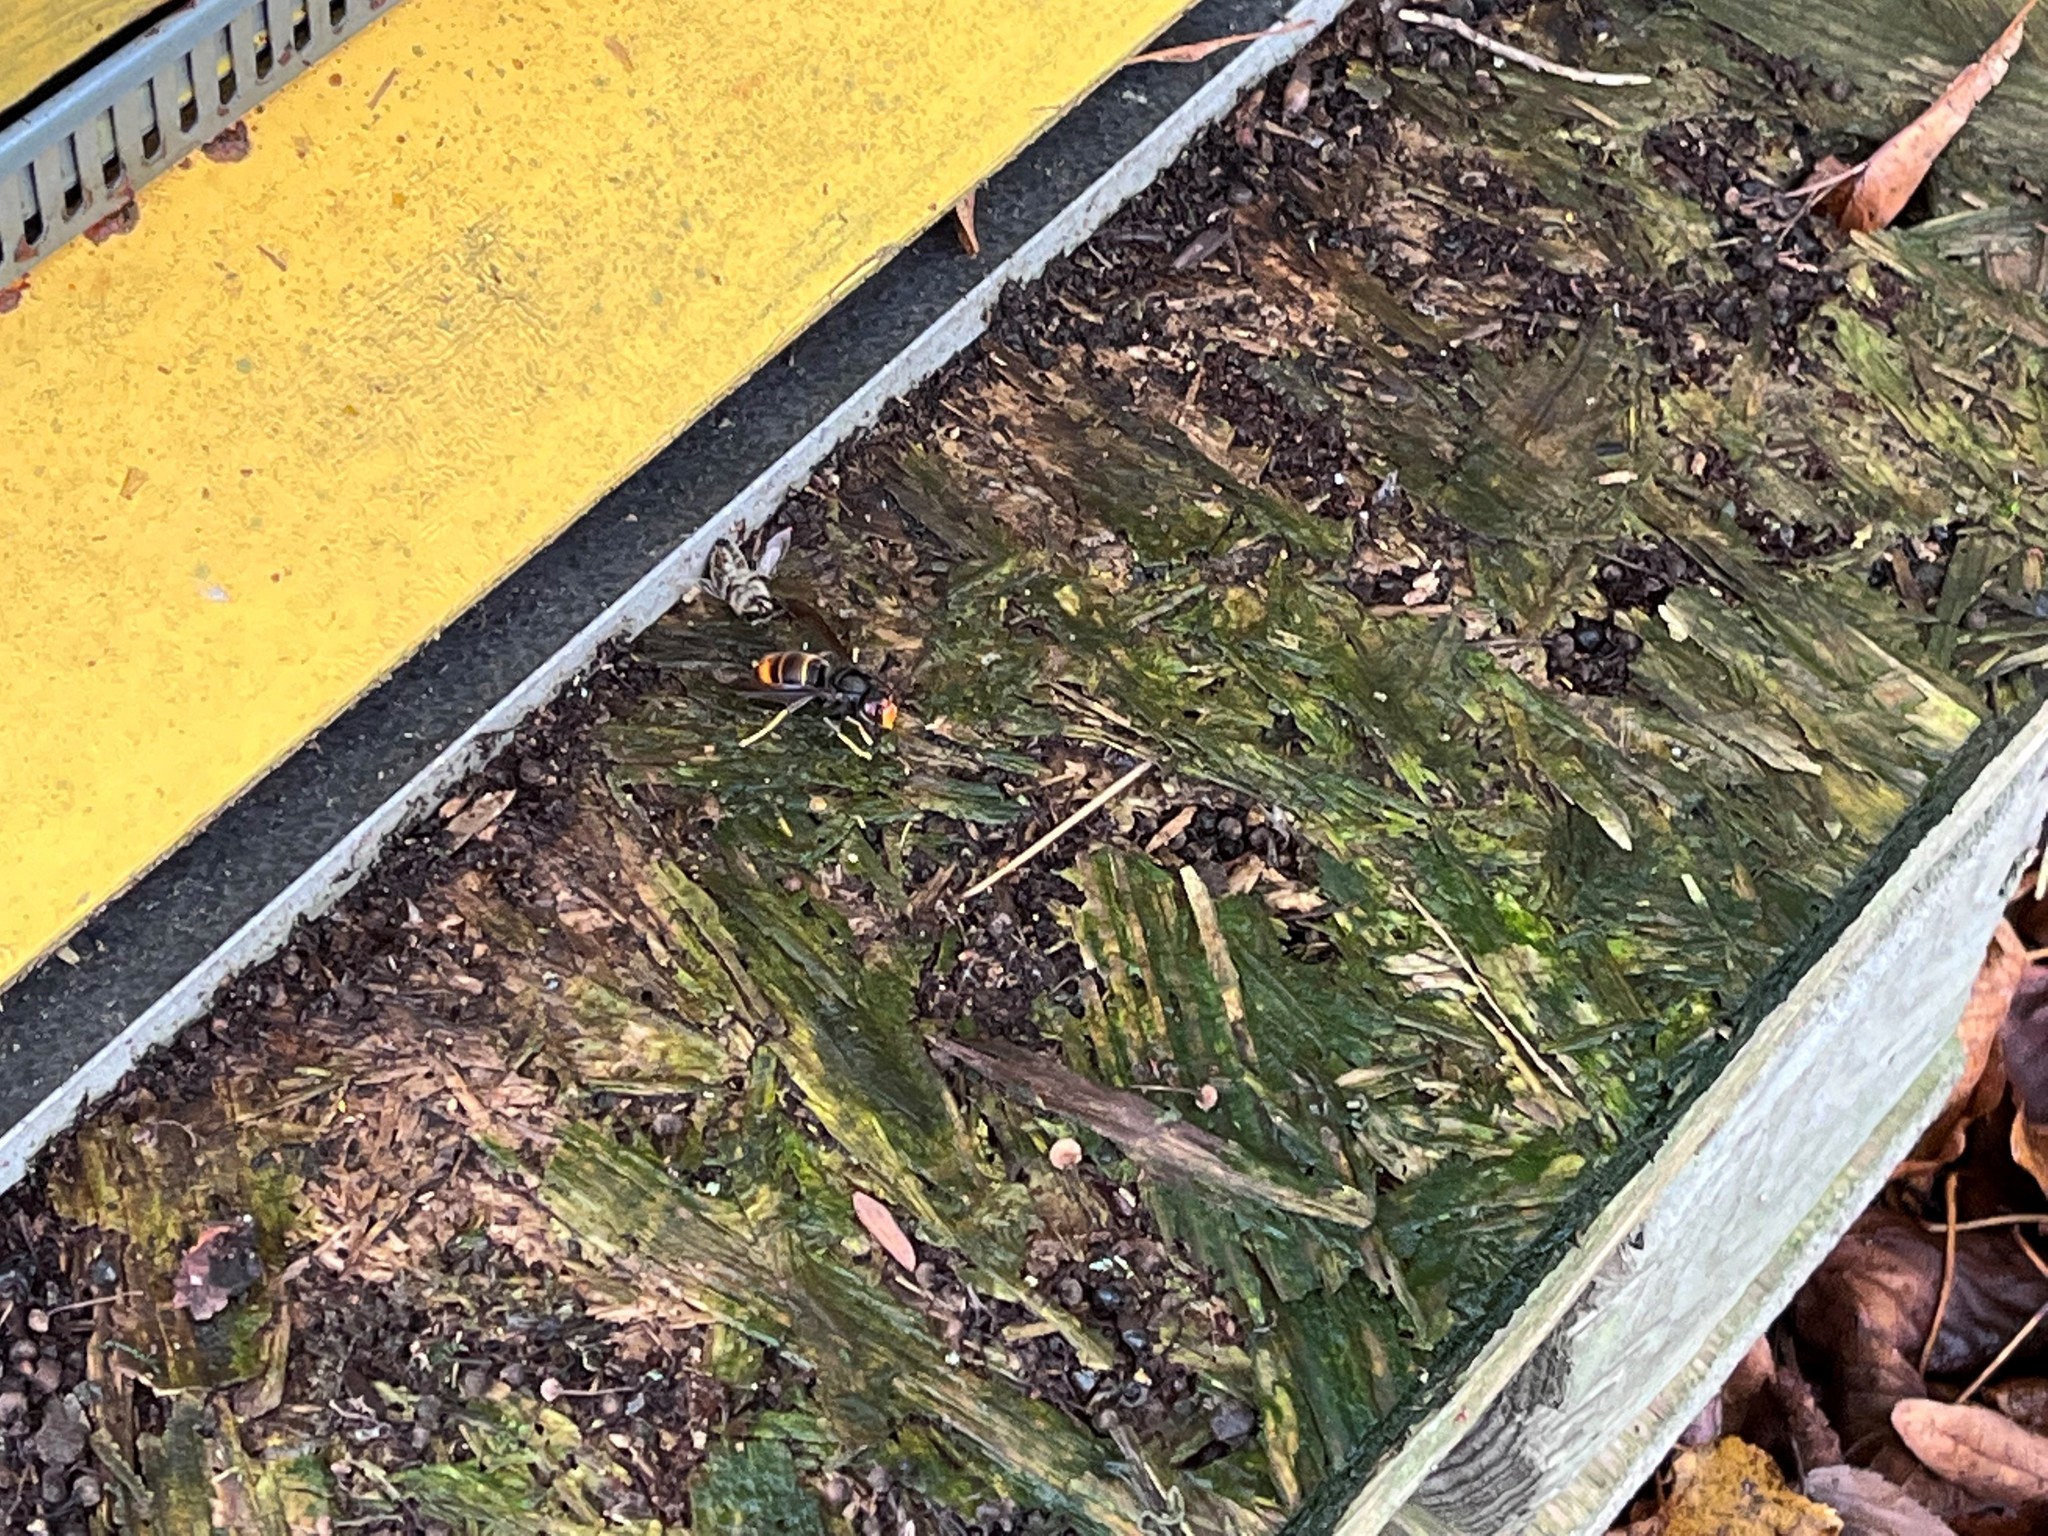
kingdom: Animalia
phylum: Arthropoda
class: Insecta
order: Hymenoptera
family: Vespidae
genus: Vespa
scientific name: Vespa velutina
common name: Asian hornet
